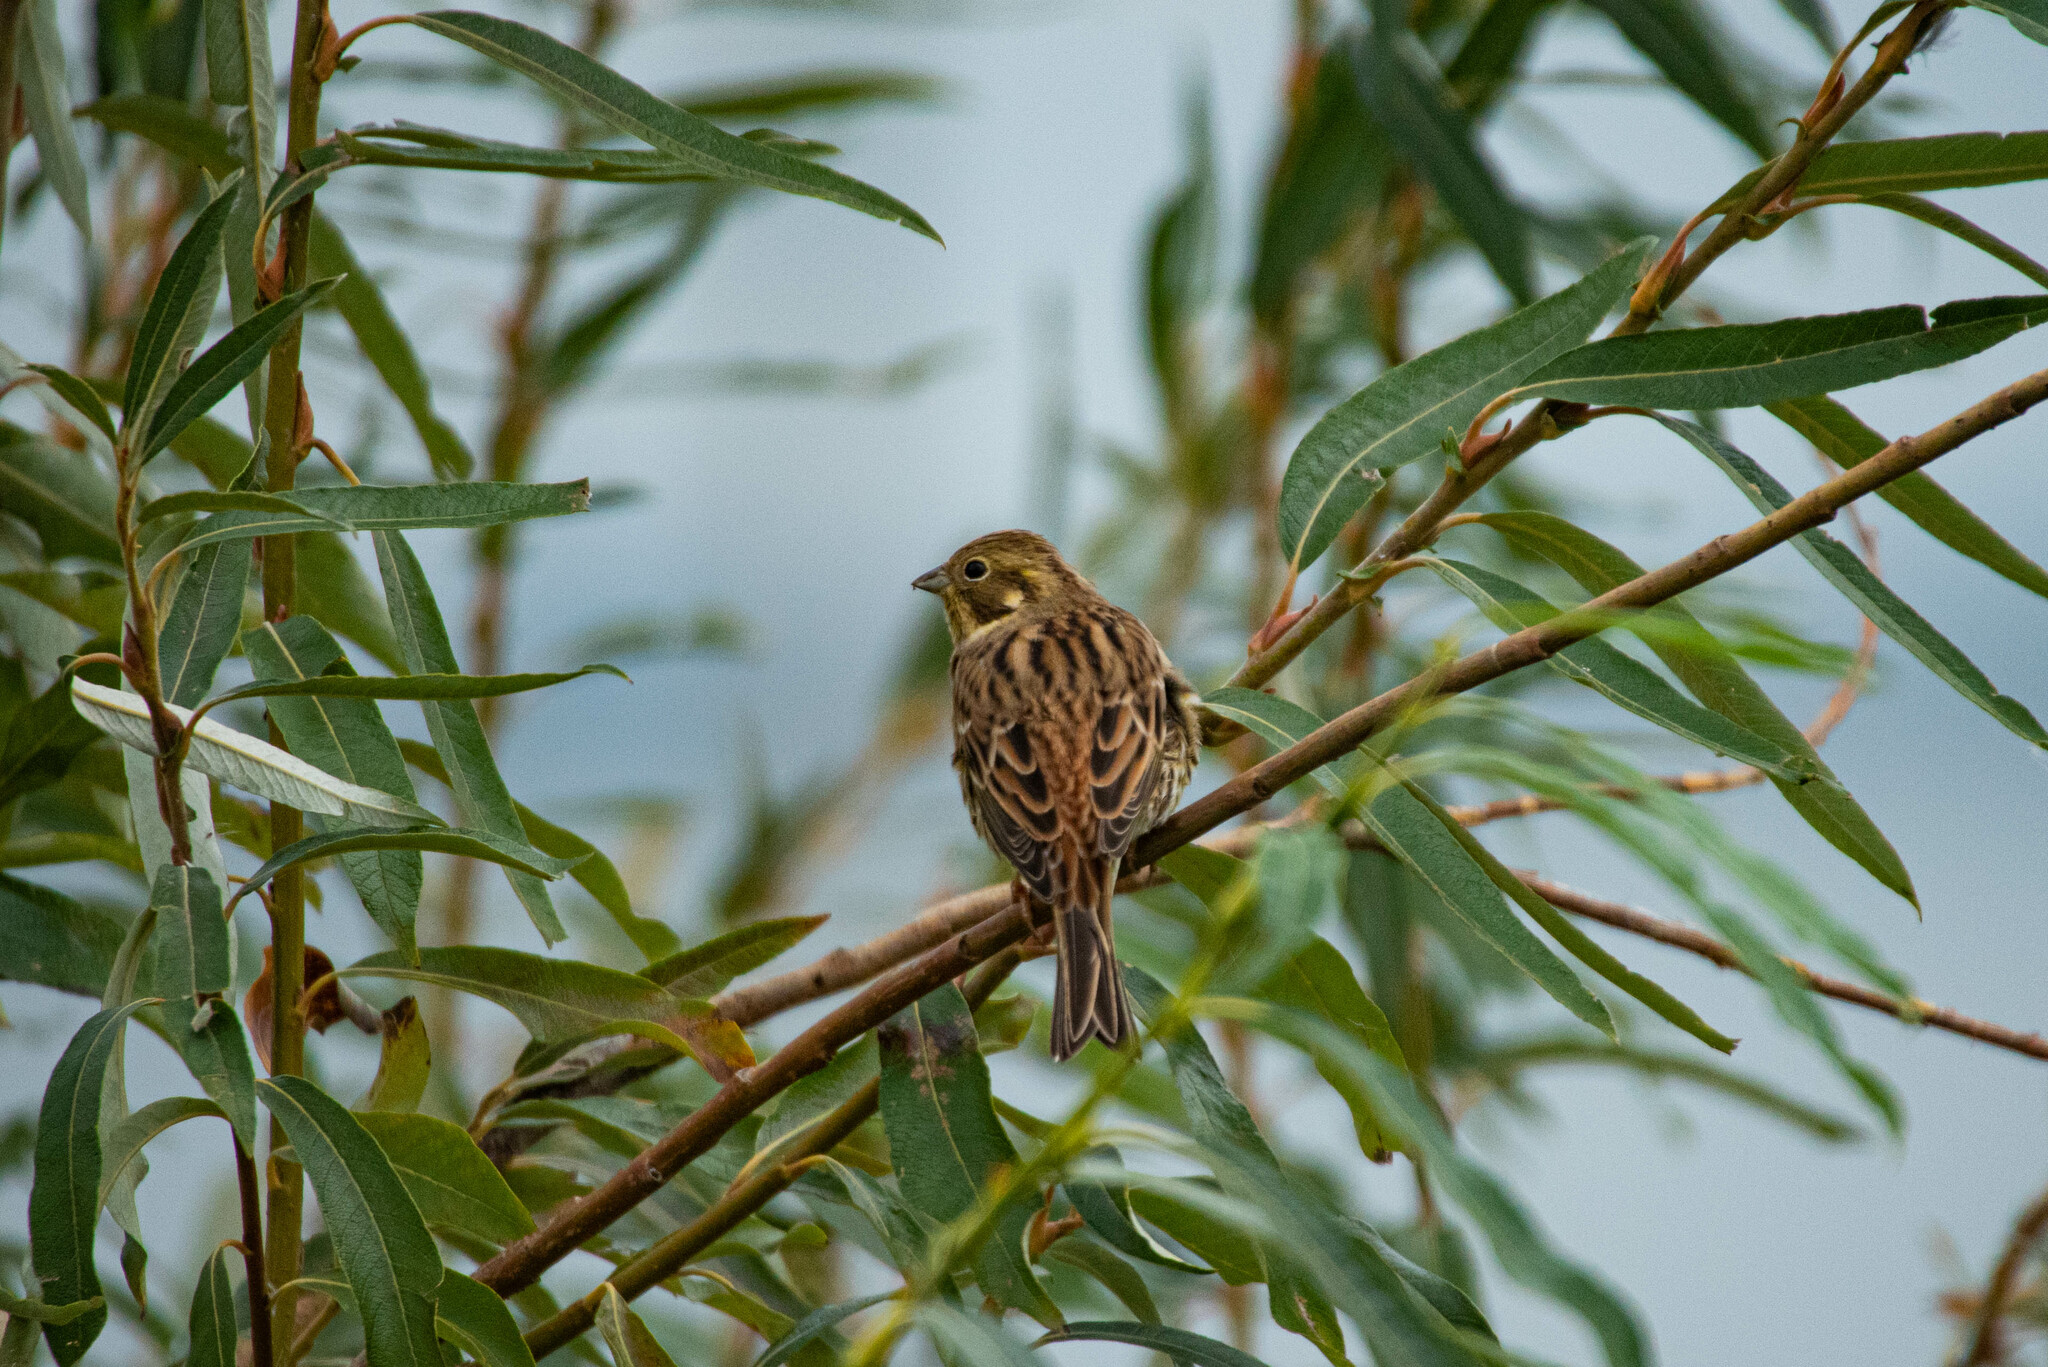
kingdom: Animalia
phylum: Chordata
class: Aves
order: Passeriformes
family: Emberizidae
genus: Emberiza
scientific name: Emberiza citrinella
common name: Yellowhammer
